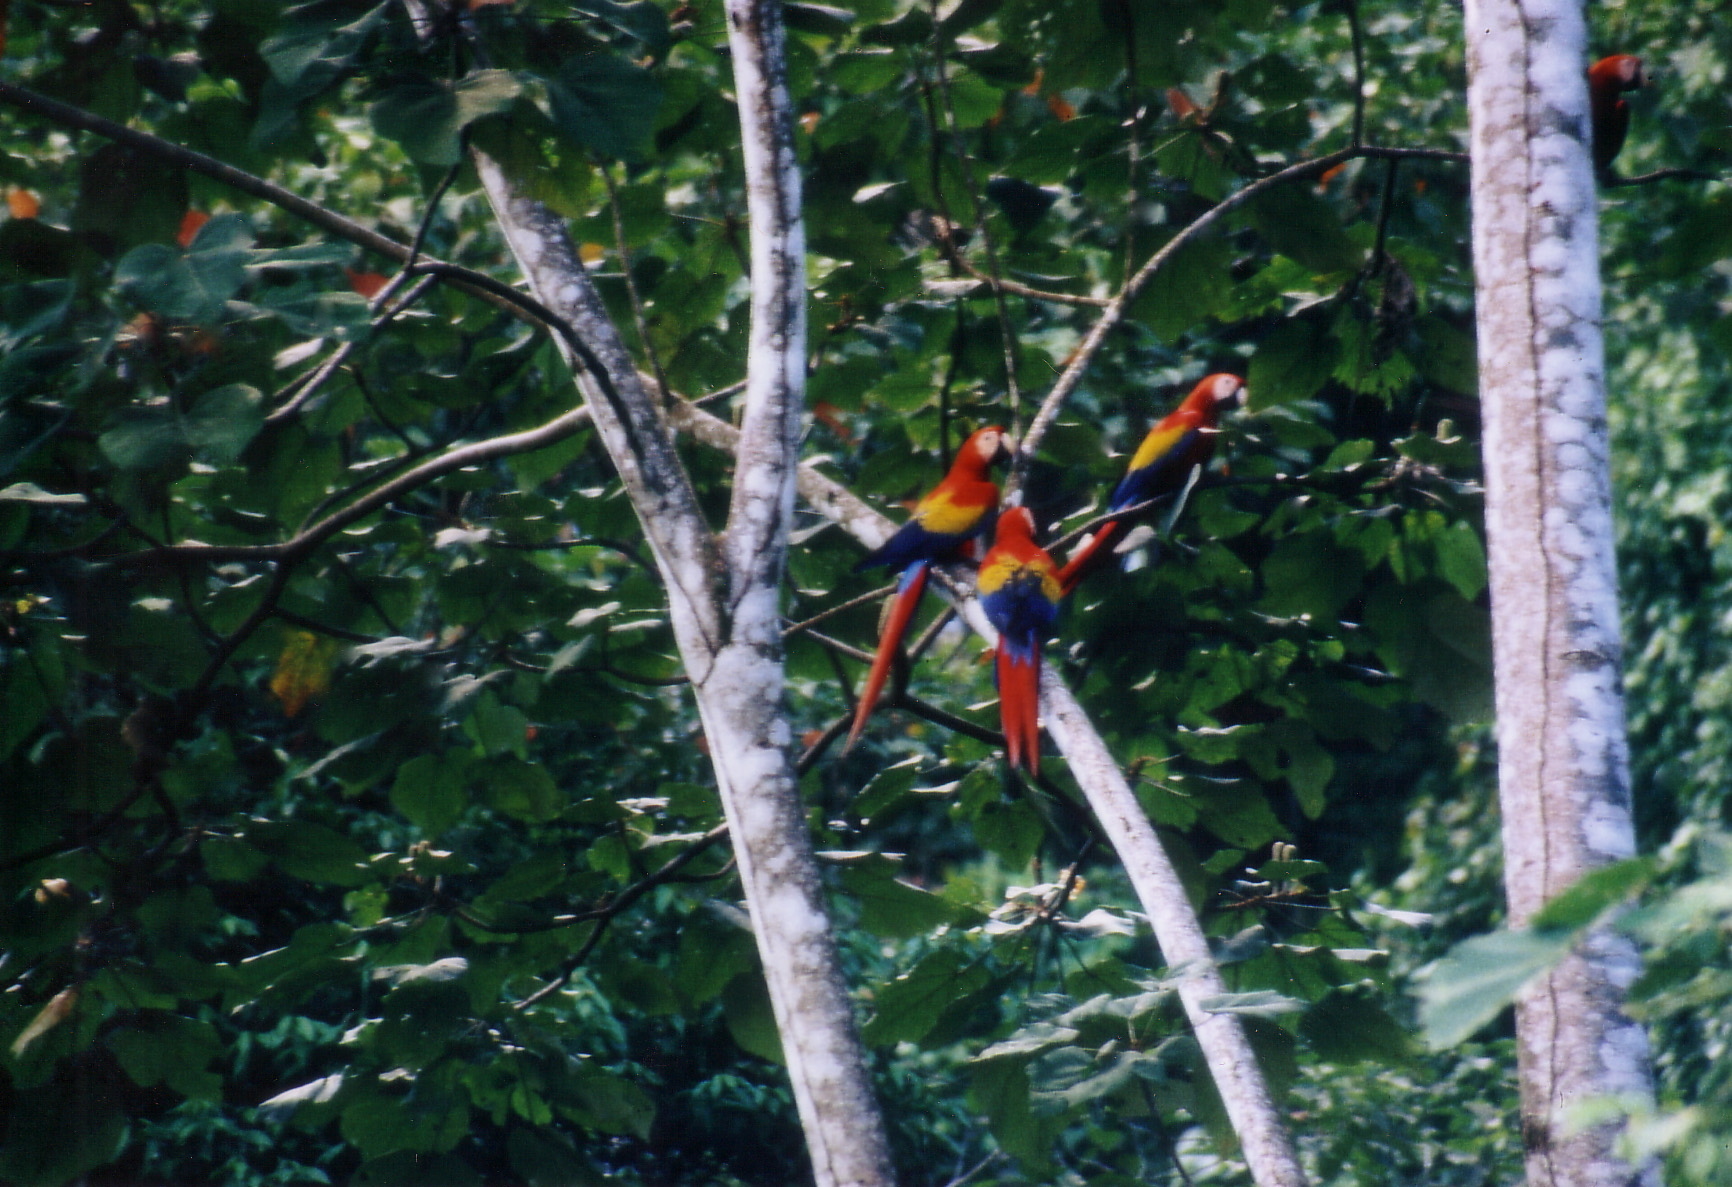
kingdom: Animalia
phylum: Chordata
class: Aves
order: Psittaciformes
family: Psittacidae
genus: Ara
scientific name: Ara macao
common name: Scarlet macaw
